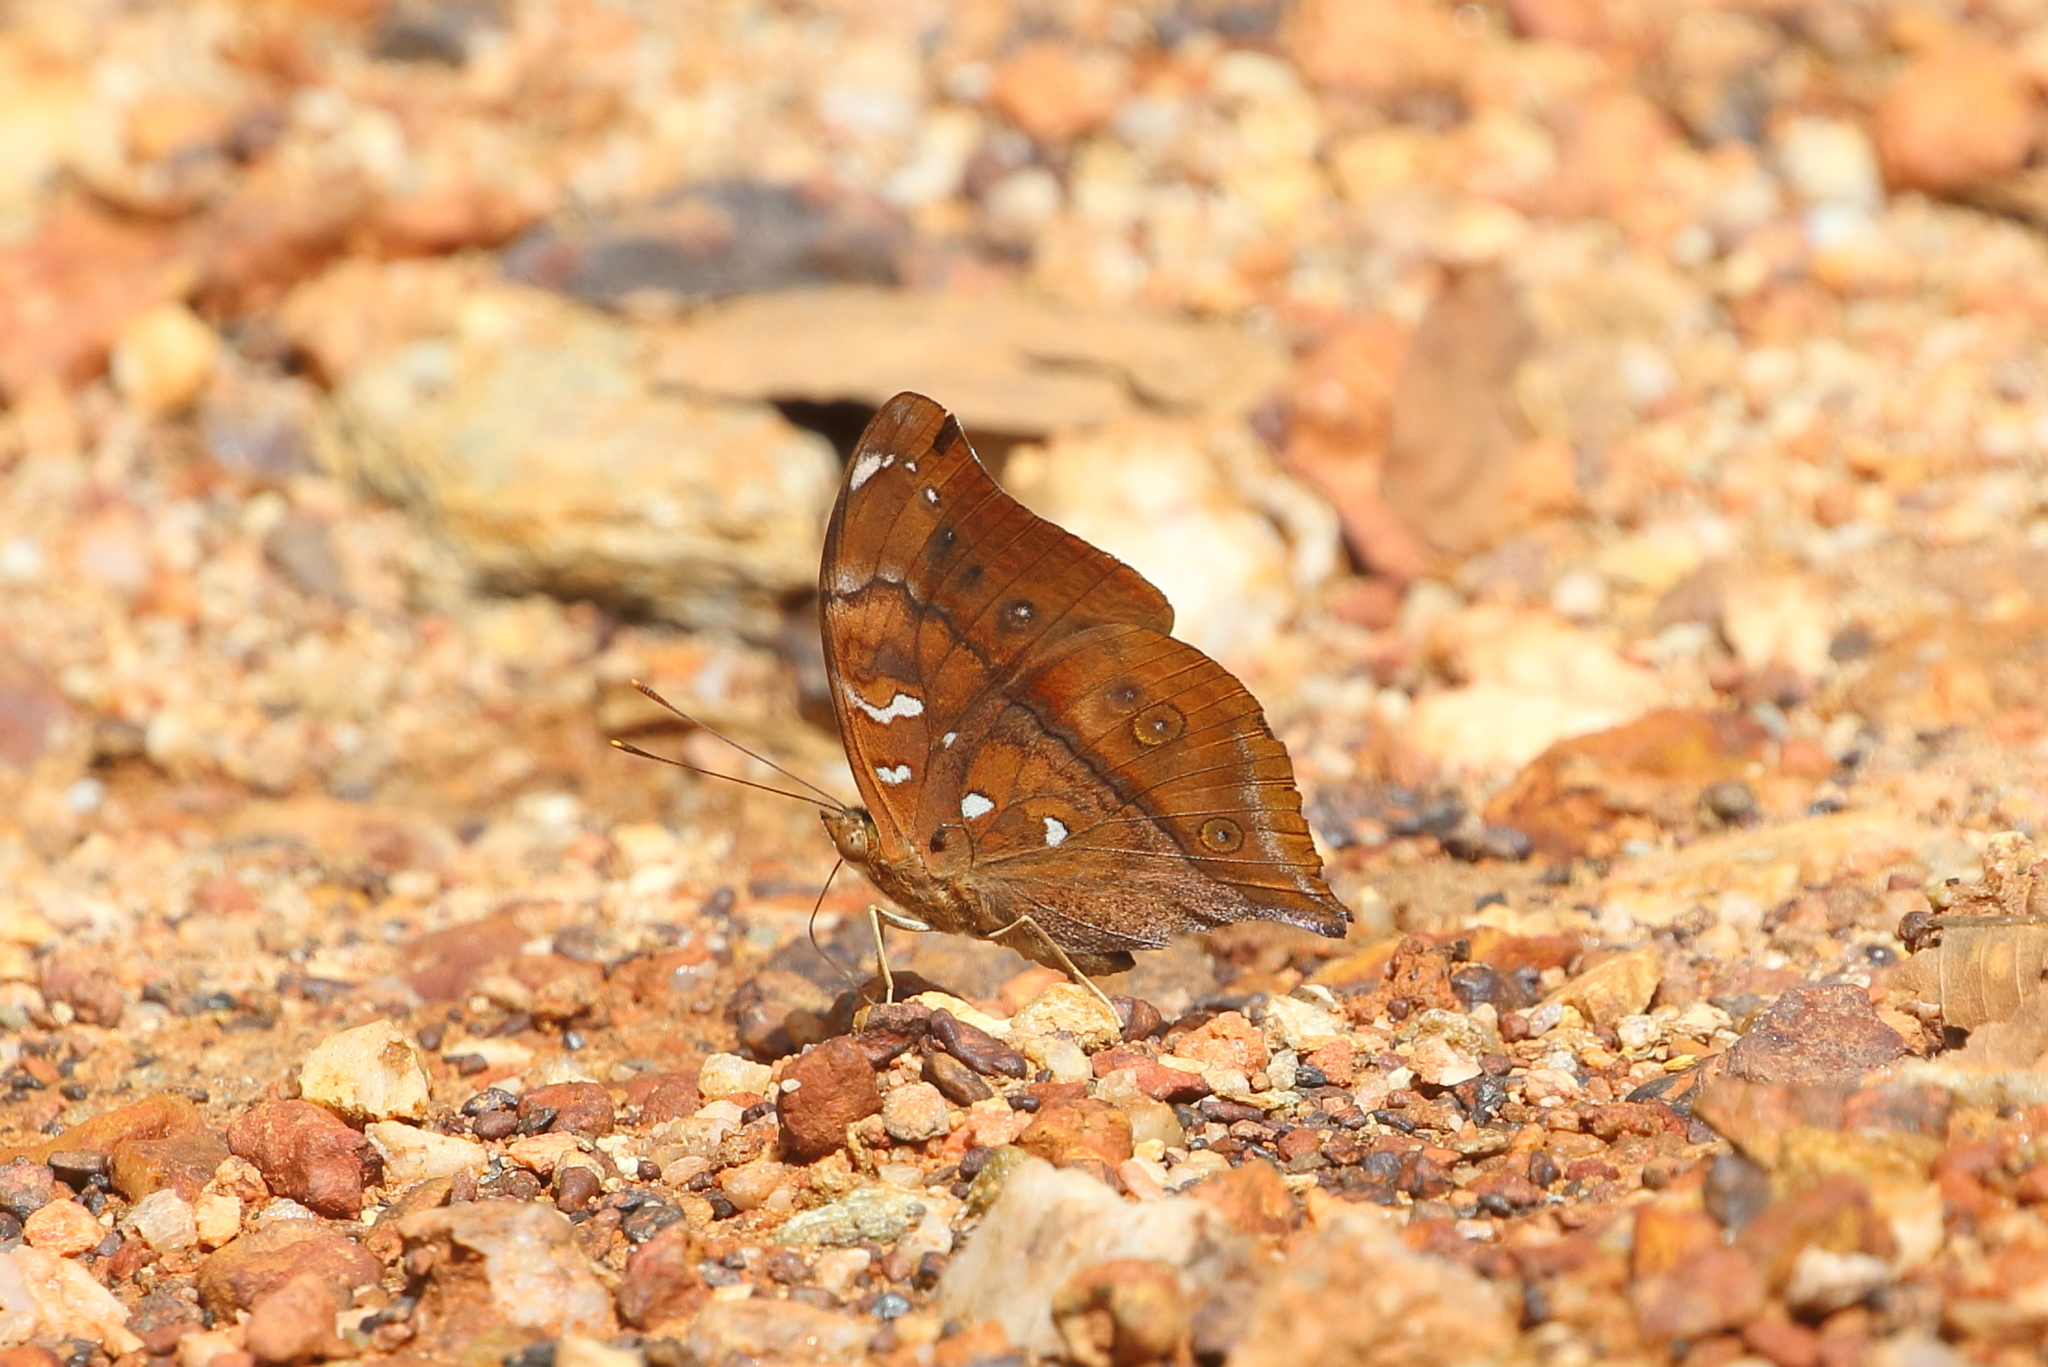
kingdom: Animalia
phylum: Arthropoda
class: Insecta
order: Lepidoptera
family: Nymphalidae
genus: Doleschallia
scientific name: Doleschallia bisaltide
